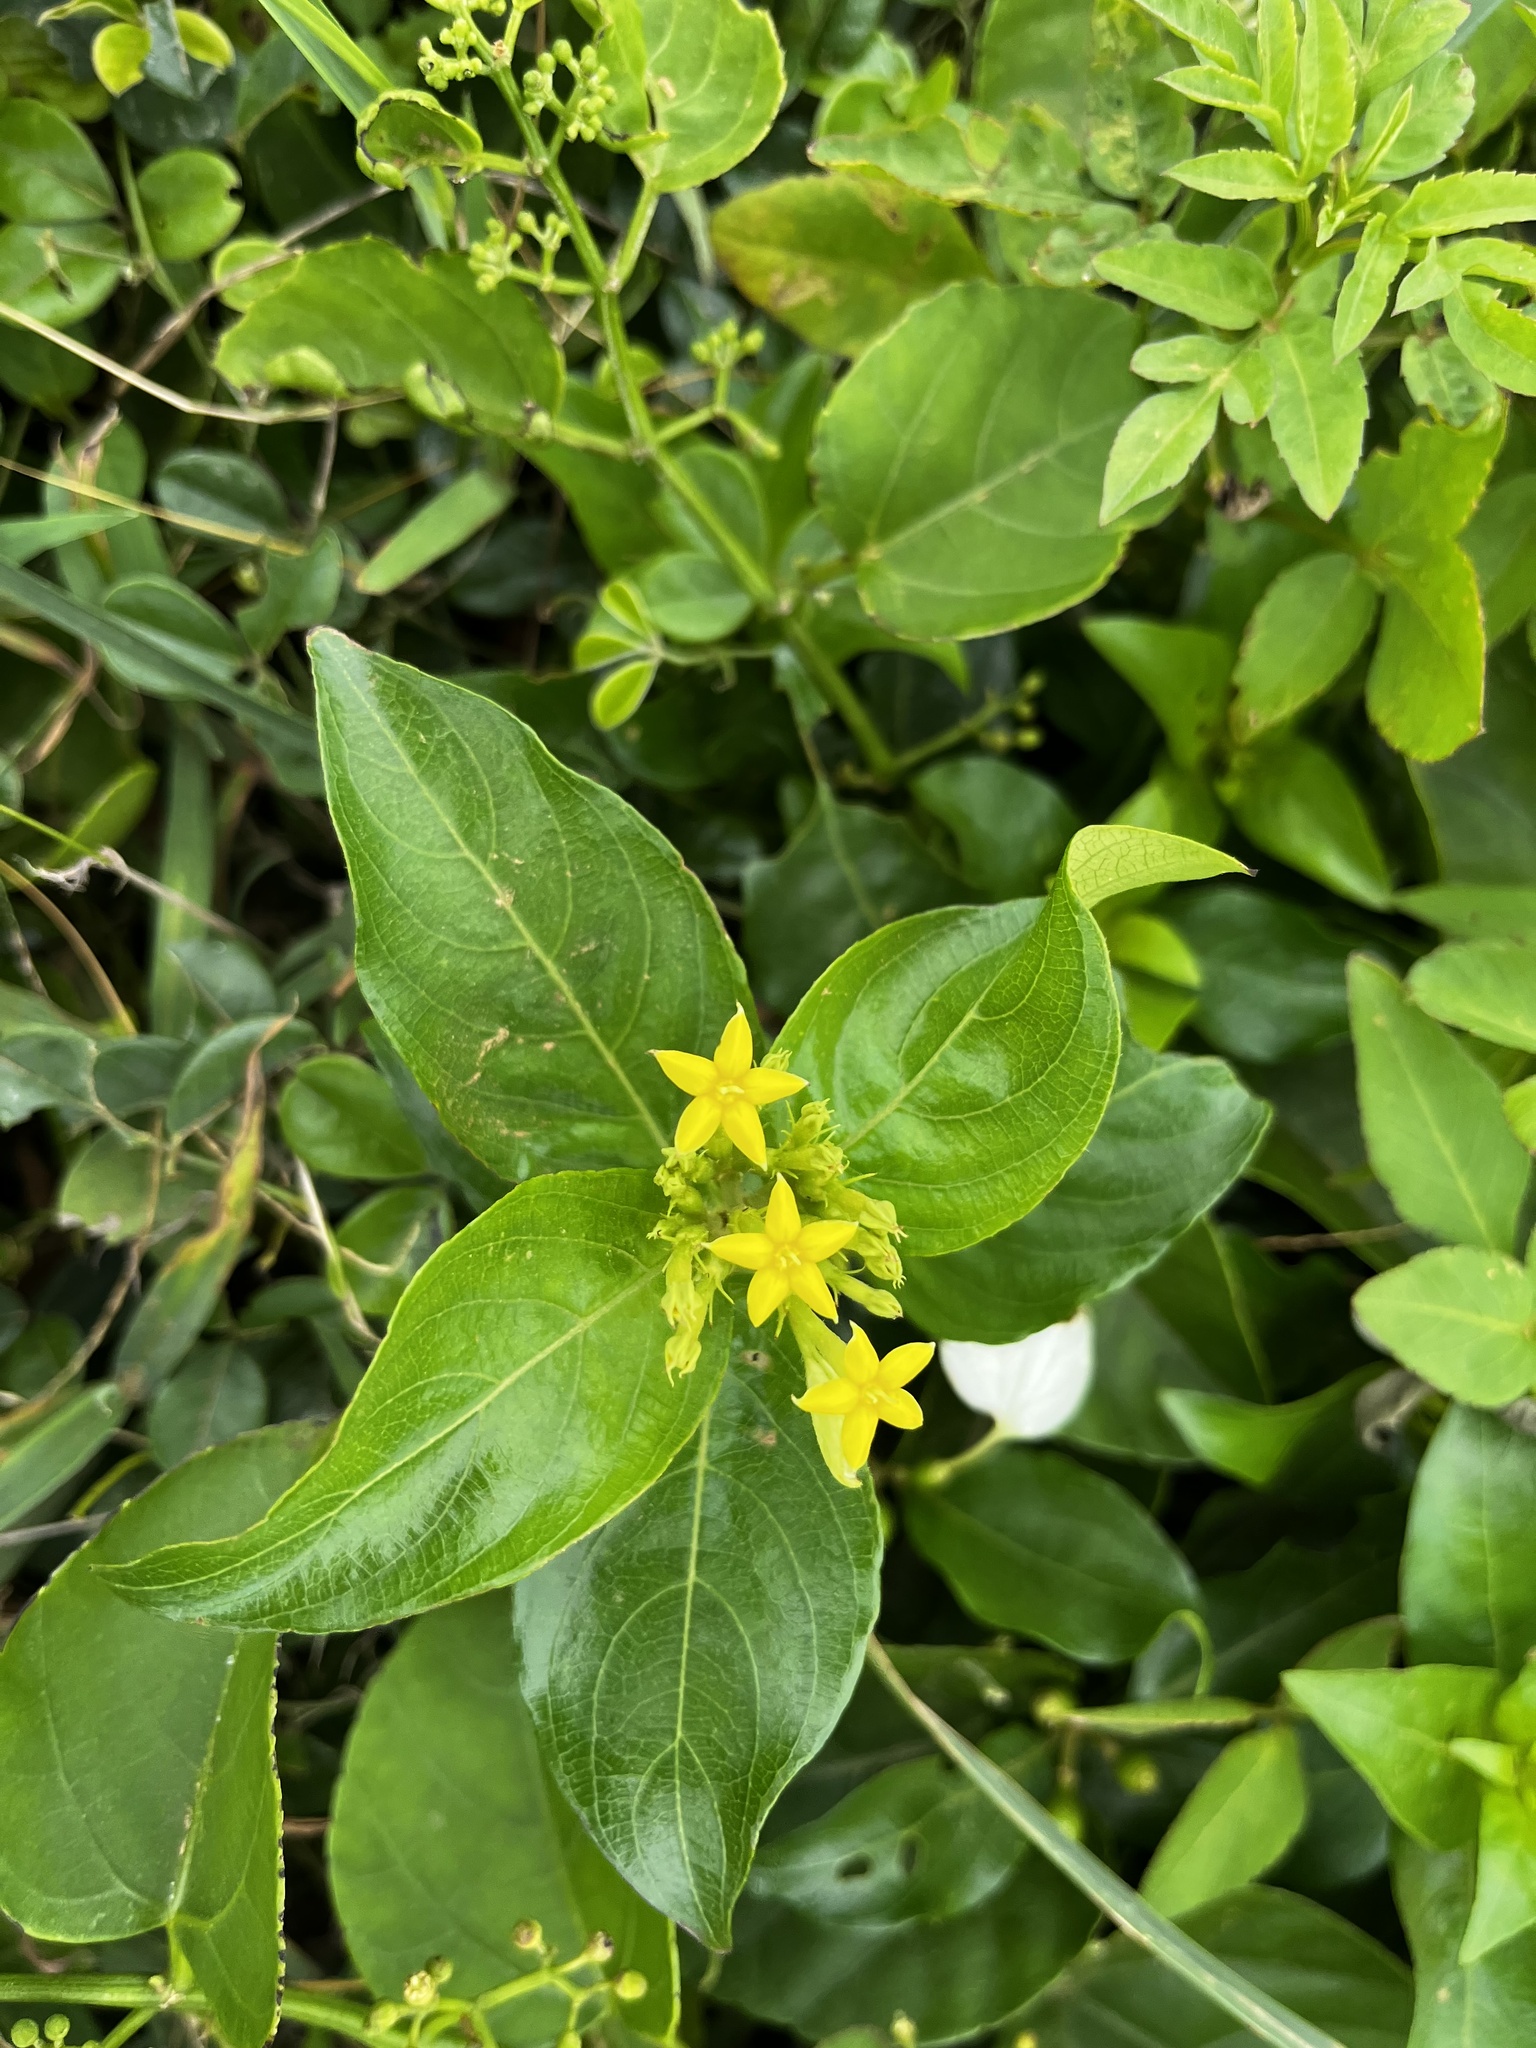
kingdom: Plantae
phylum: Tracheophyta
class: Magnoliopsida
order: Gentianales
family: Rubiaceae
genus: Mussaenda
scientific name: Mussaenda formosana
